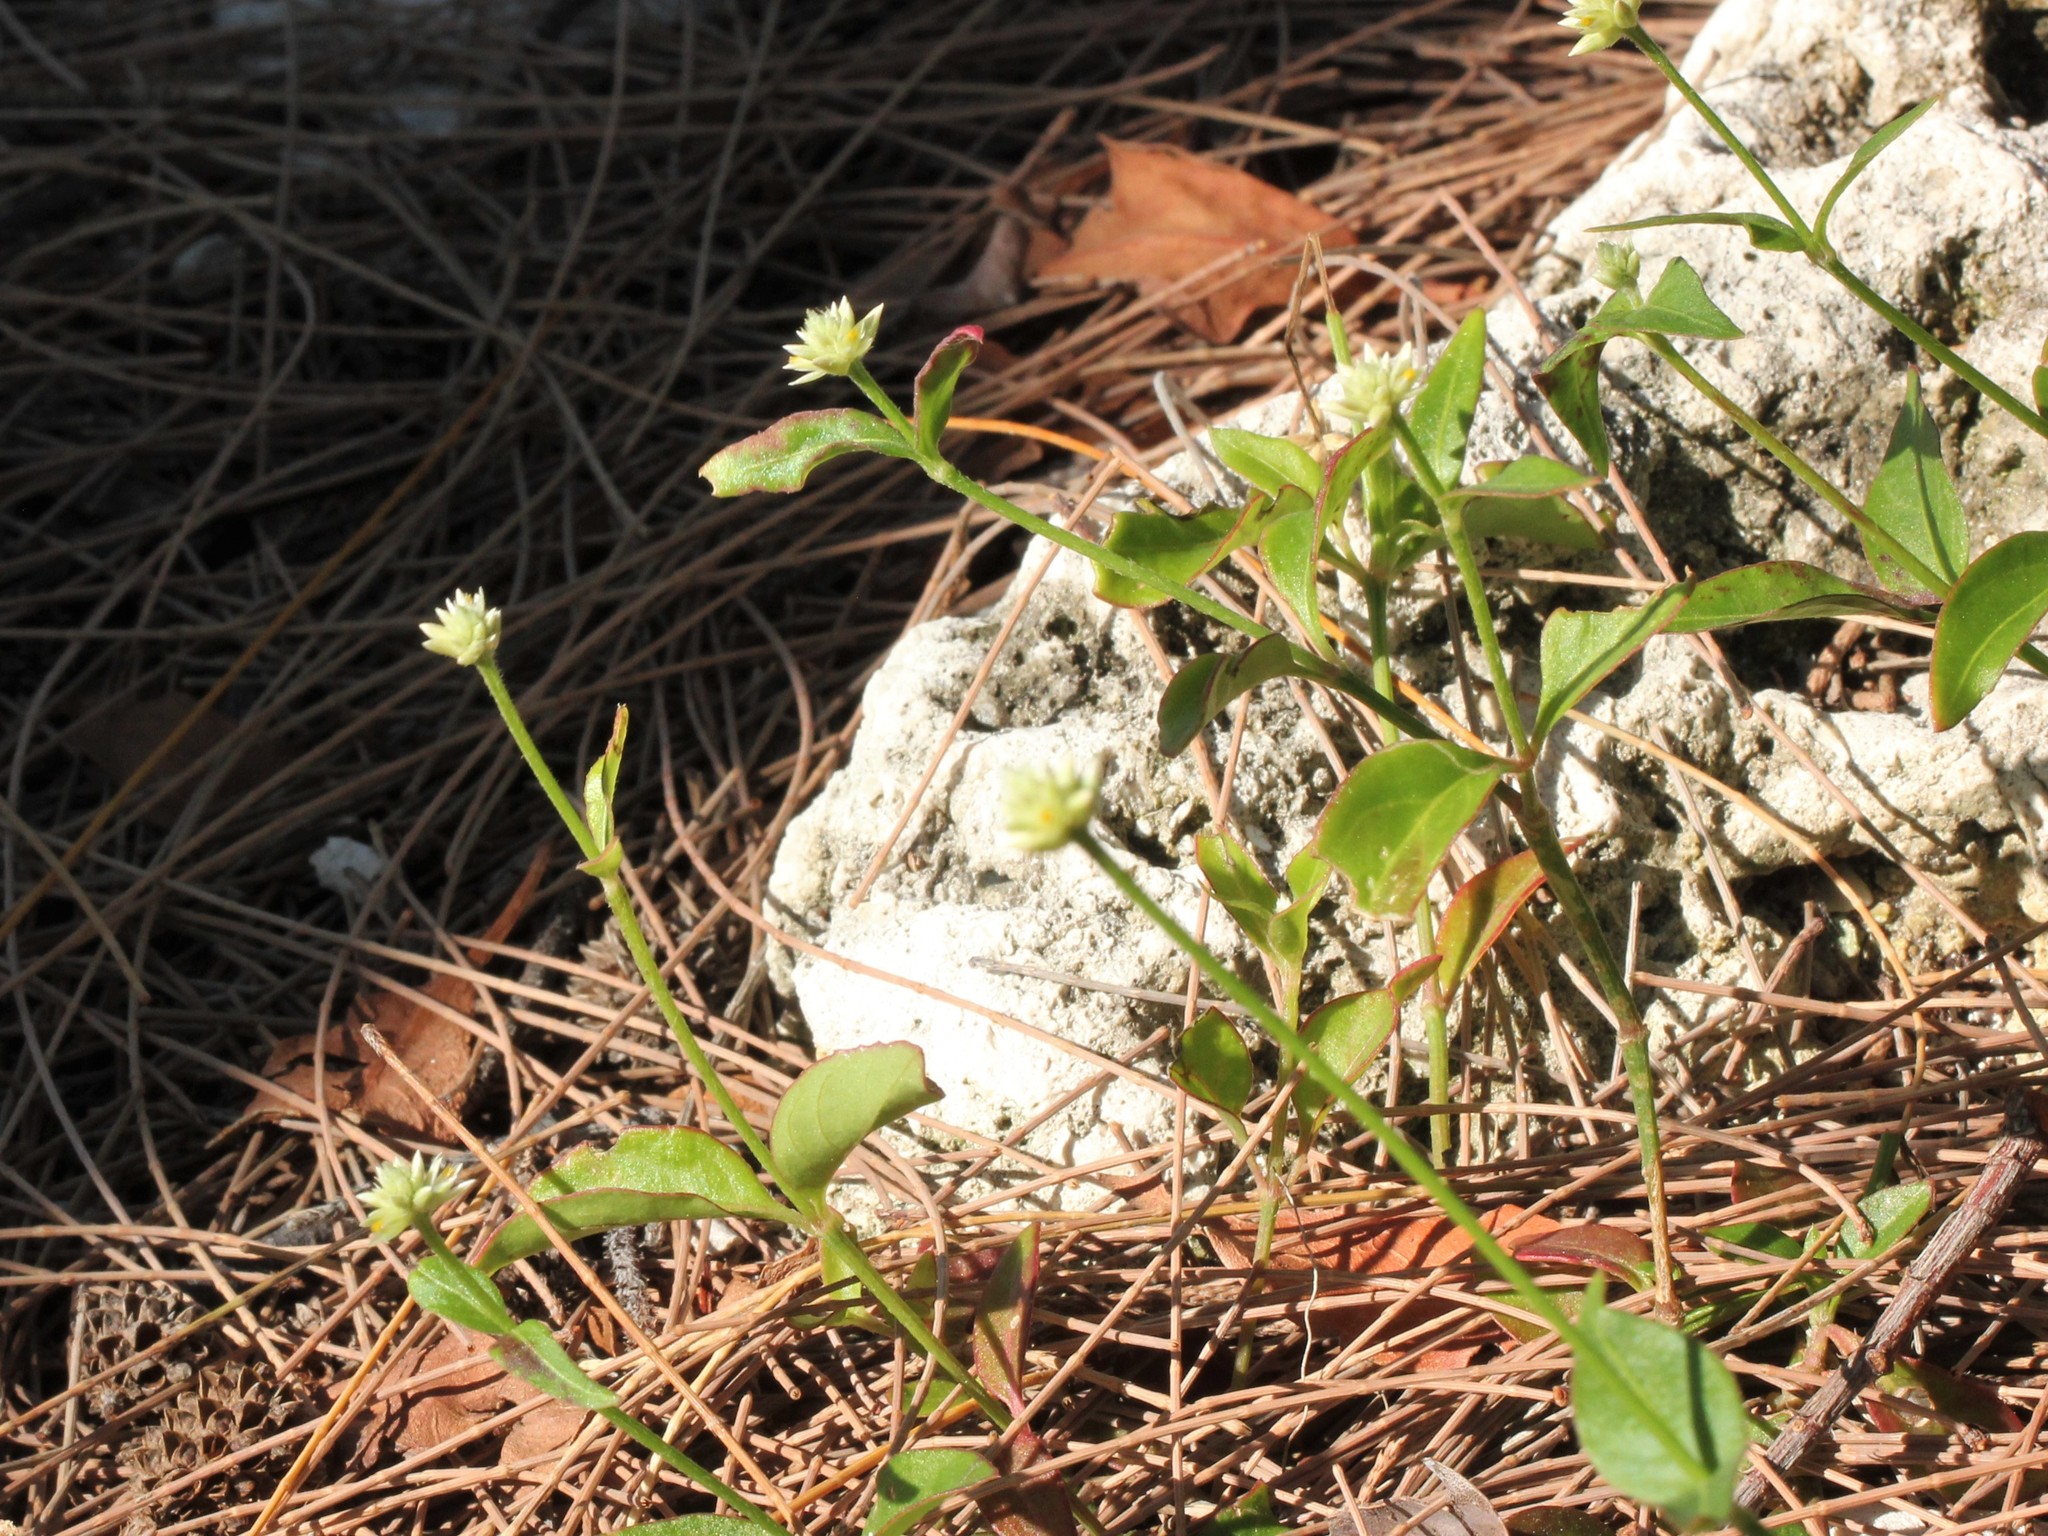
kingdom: Plantae
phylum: Tracheophyta
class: Magnoliopsida
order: Caryophyllales
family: Amaranthaceae
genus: Gomphrena
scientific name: Gomphrena serrata
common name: Arrasa con todo
